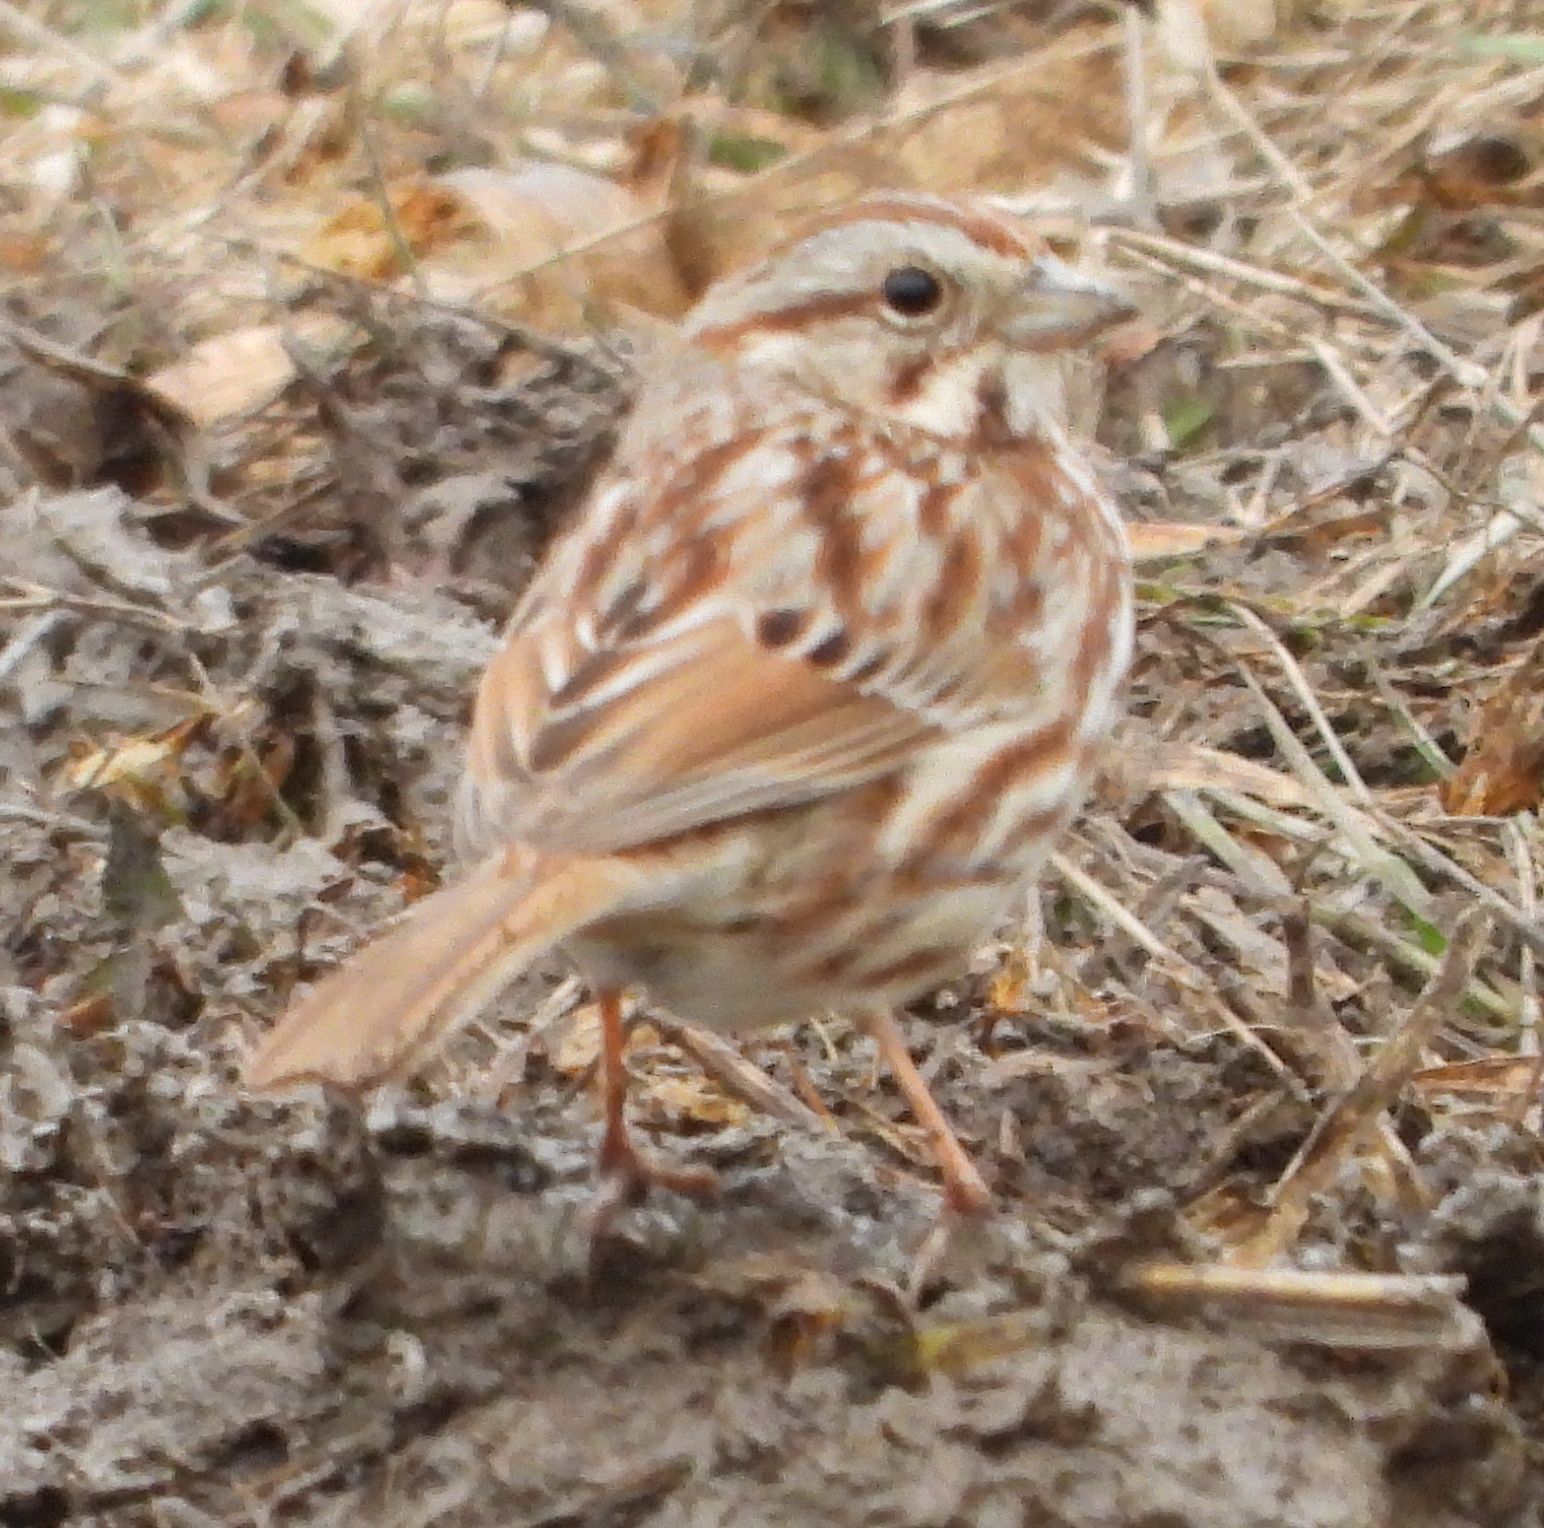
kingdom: Animalia
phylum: Chordata
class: Aves
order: Passeriformes
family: Passerellidae
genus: Melospiza
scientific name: Melospiza melodia
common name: Song sparrow
